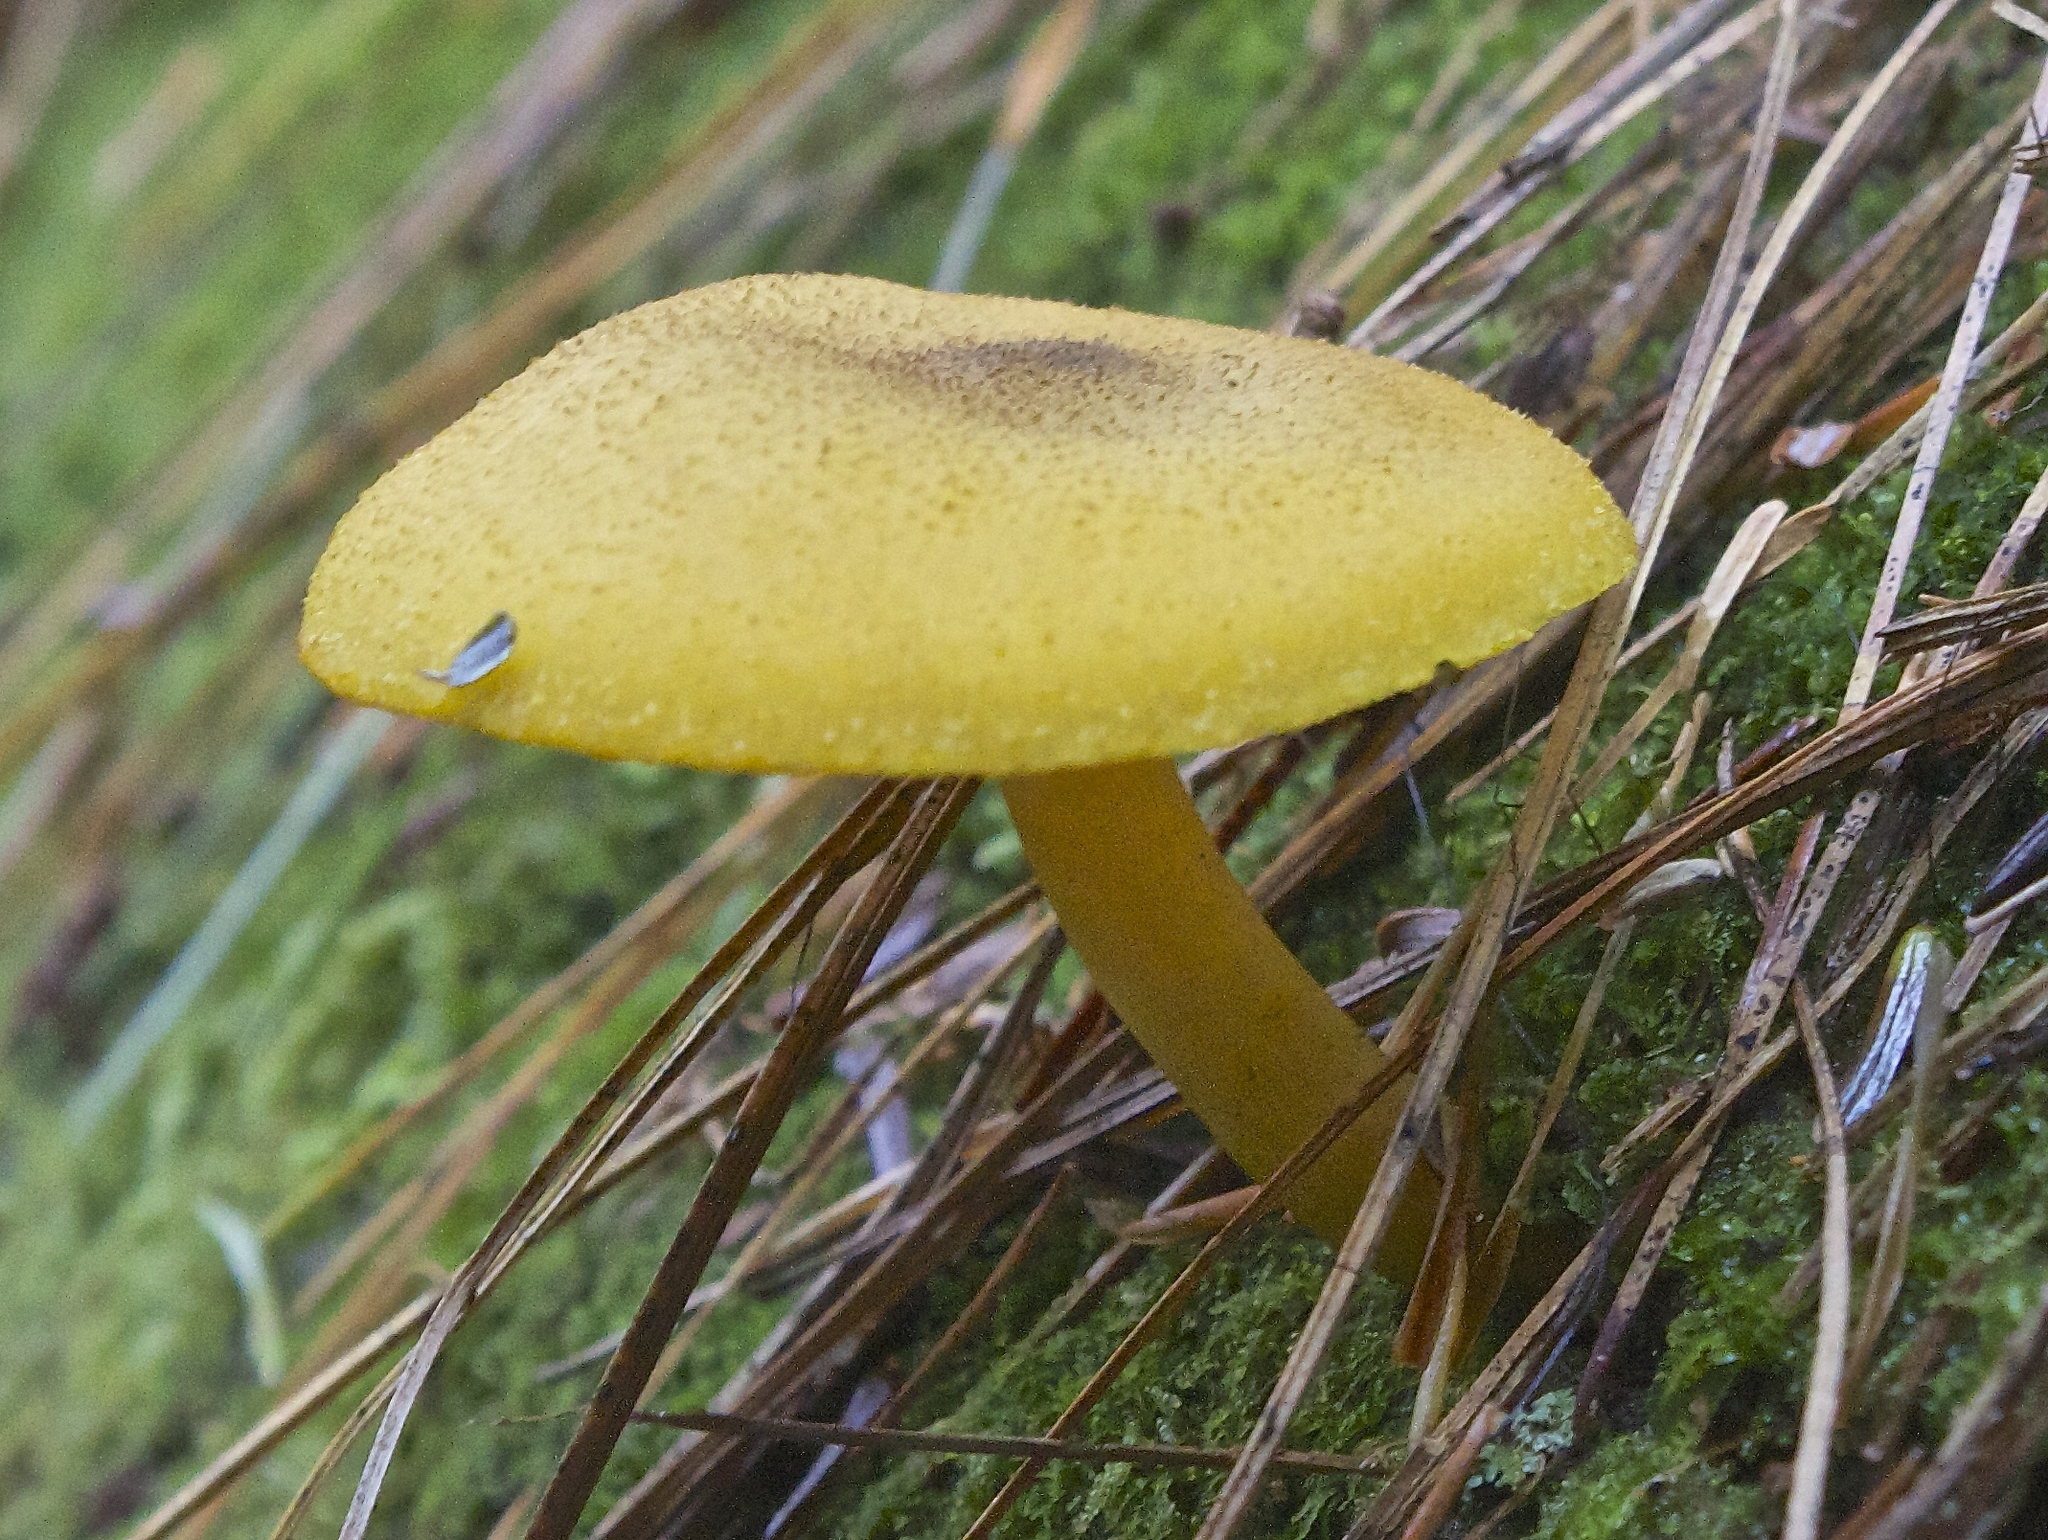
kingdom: Fungi
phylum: Basidiomycota
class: Agaricomycetes
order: Agaricales
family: Tricholomataceae
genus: Tricholomopsis
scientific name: Tricholomopsis decora
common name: Prunes and custard
